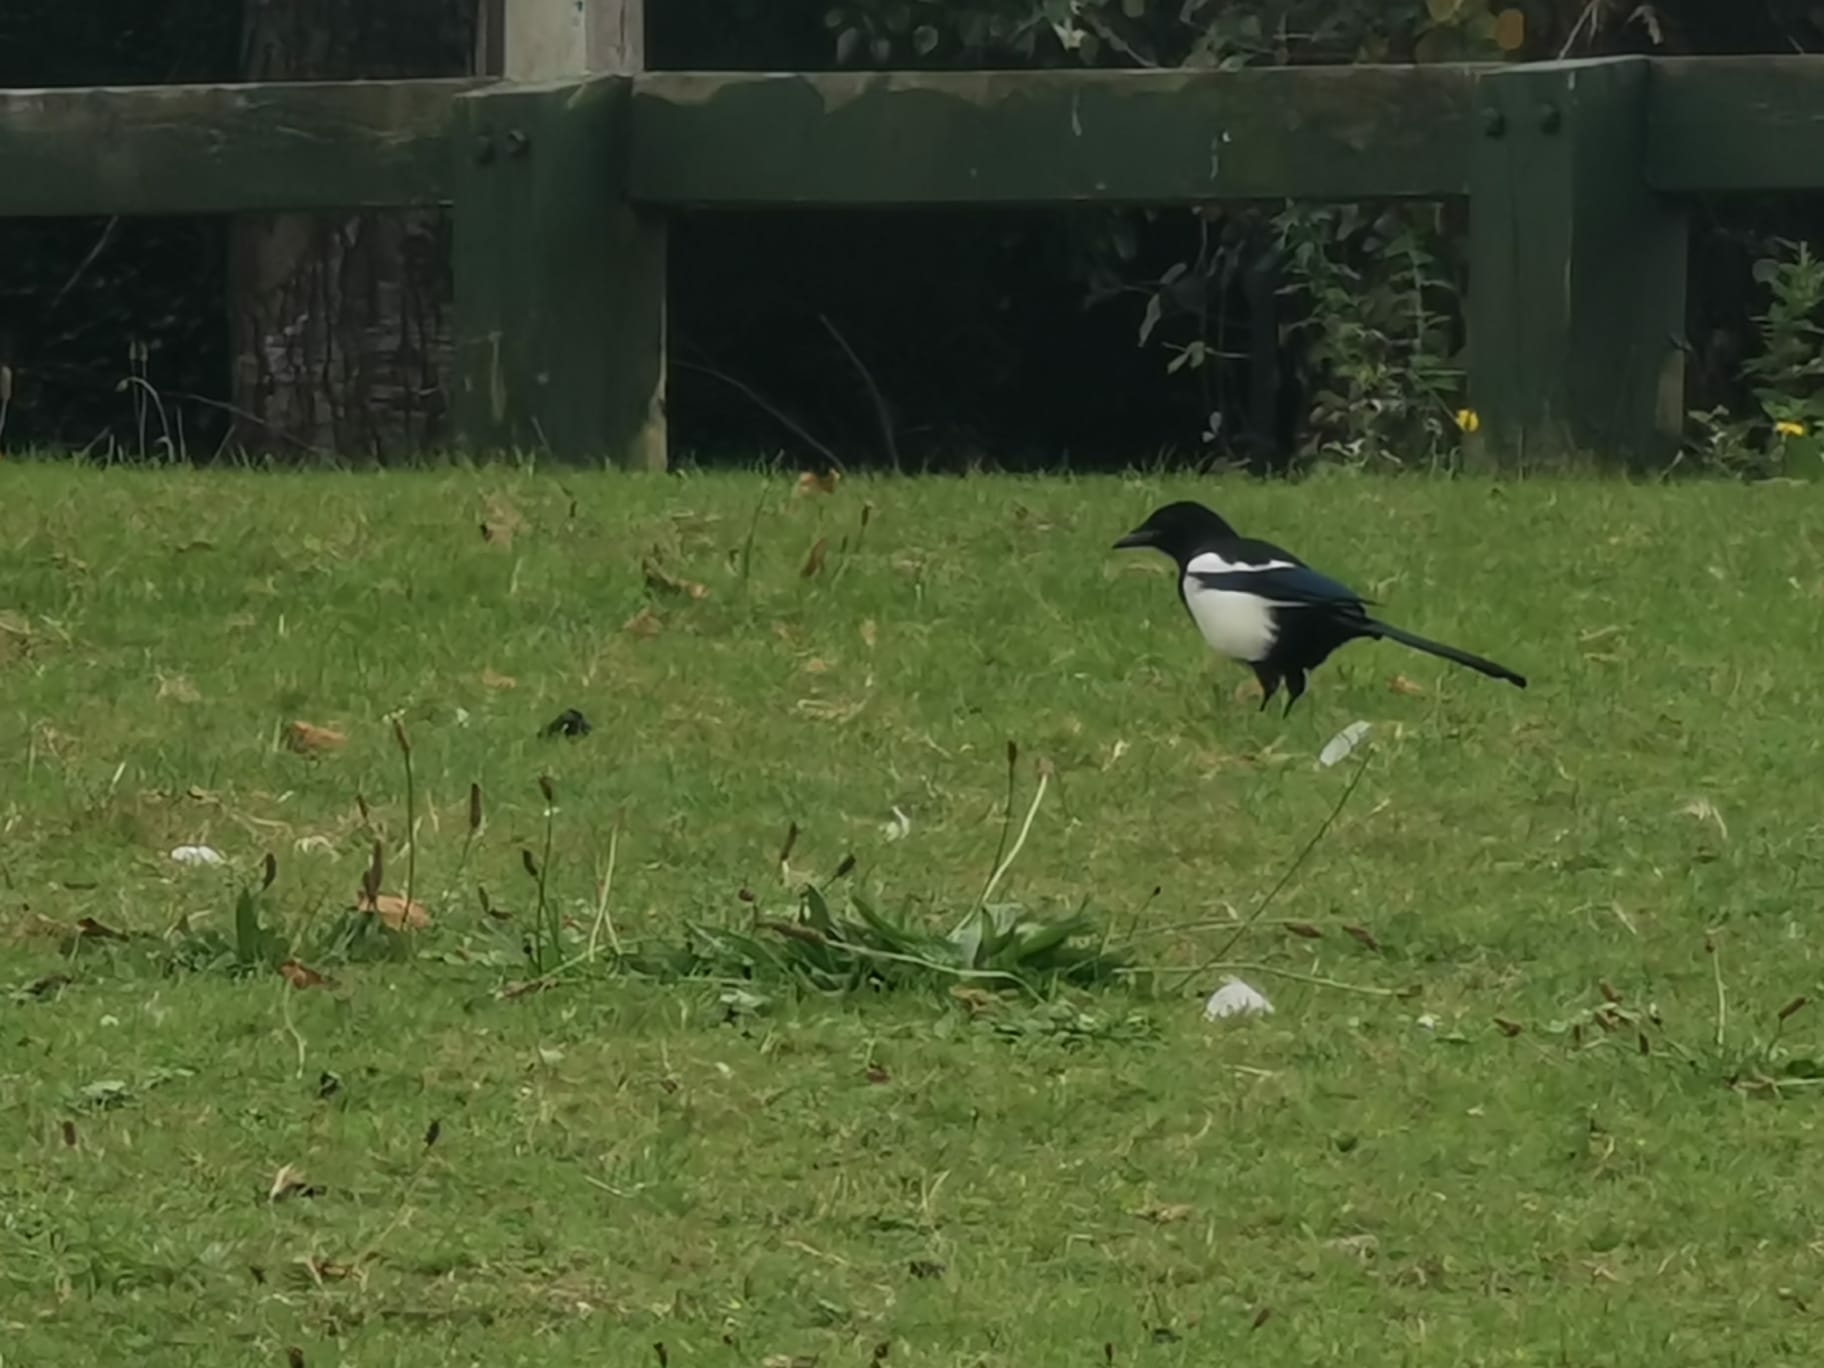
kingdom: Animalia
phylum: Chordata
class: Aves
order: Passeriformes
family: Corvidae
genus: Pica
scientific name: Pica pica
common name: Eurasian magpie
